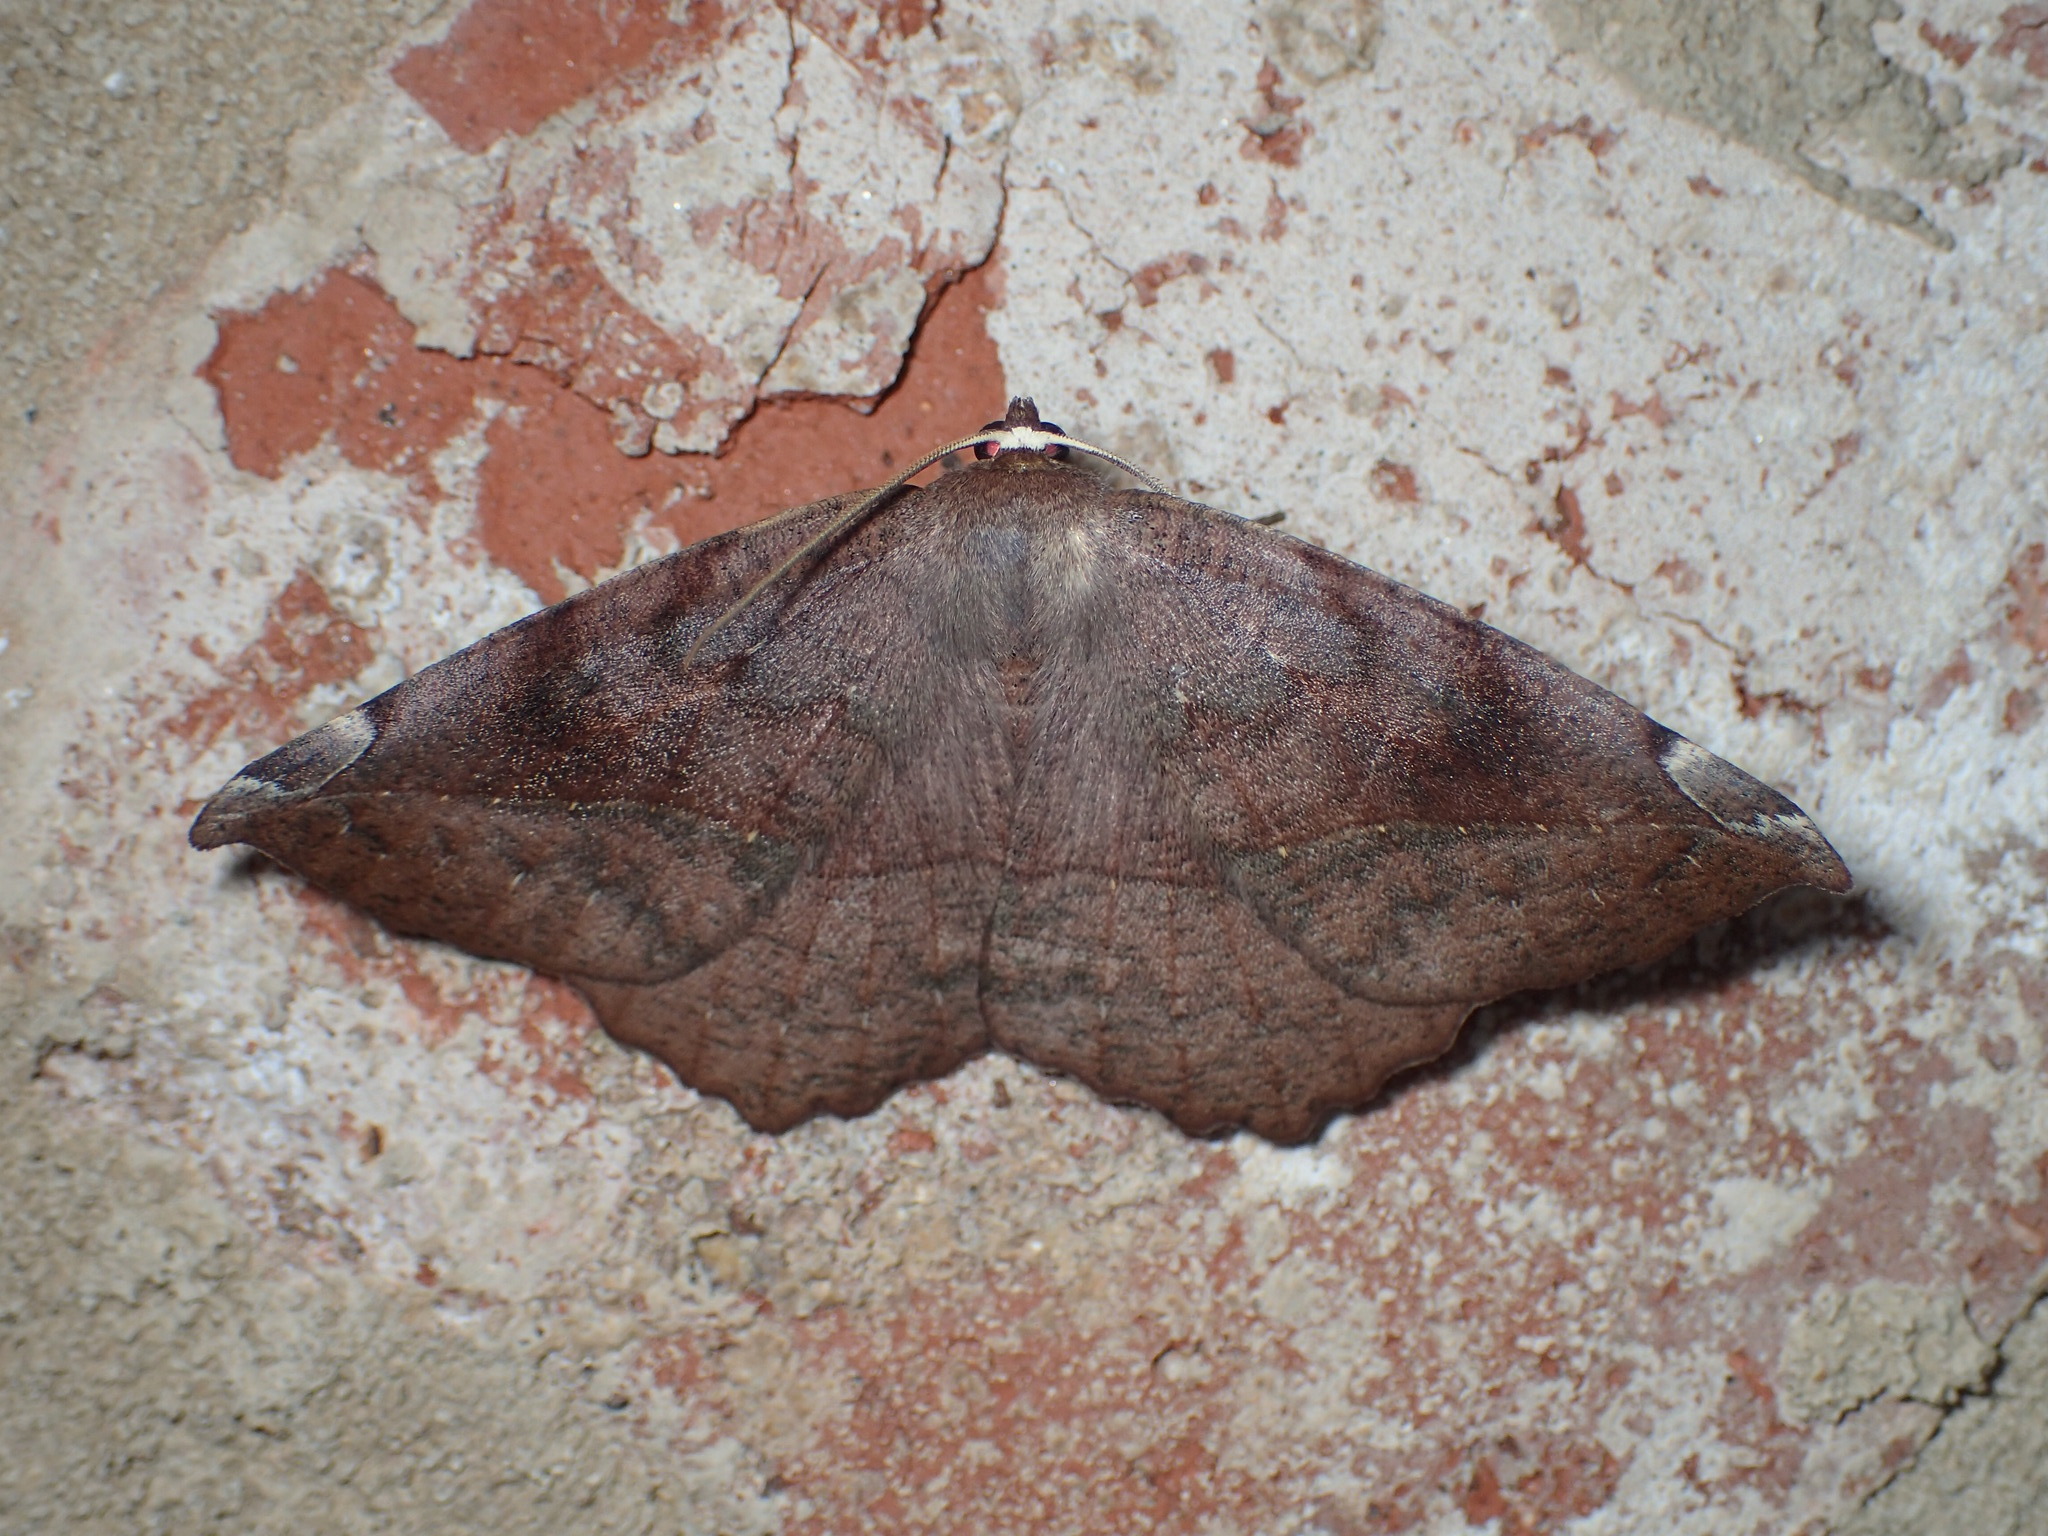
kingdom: Animalia
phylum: Arthropoda
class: Insecta
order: Lepidoptera
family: Geometridae
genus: Eutrapela
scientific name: Eutrapela clemataria
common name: Curved-toothed geometer
